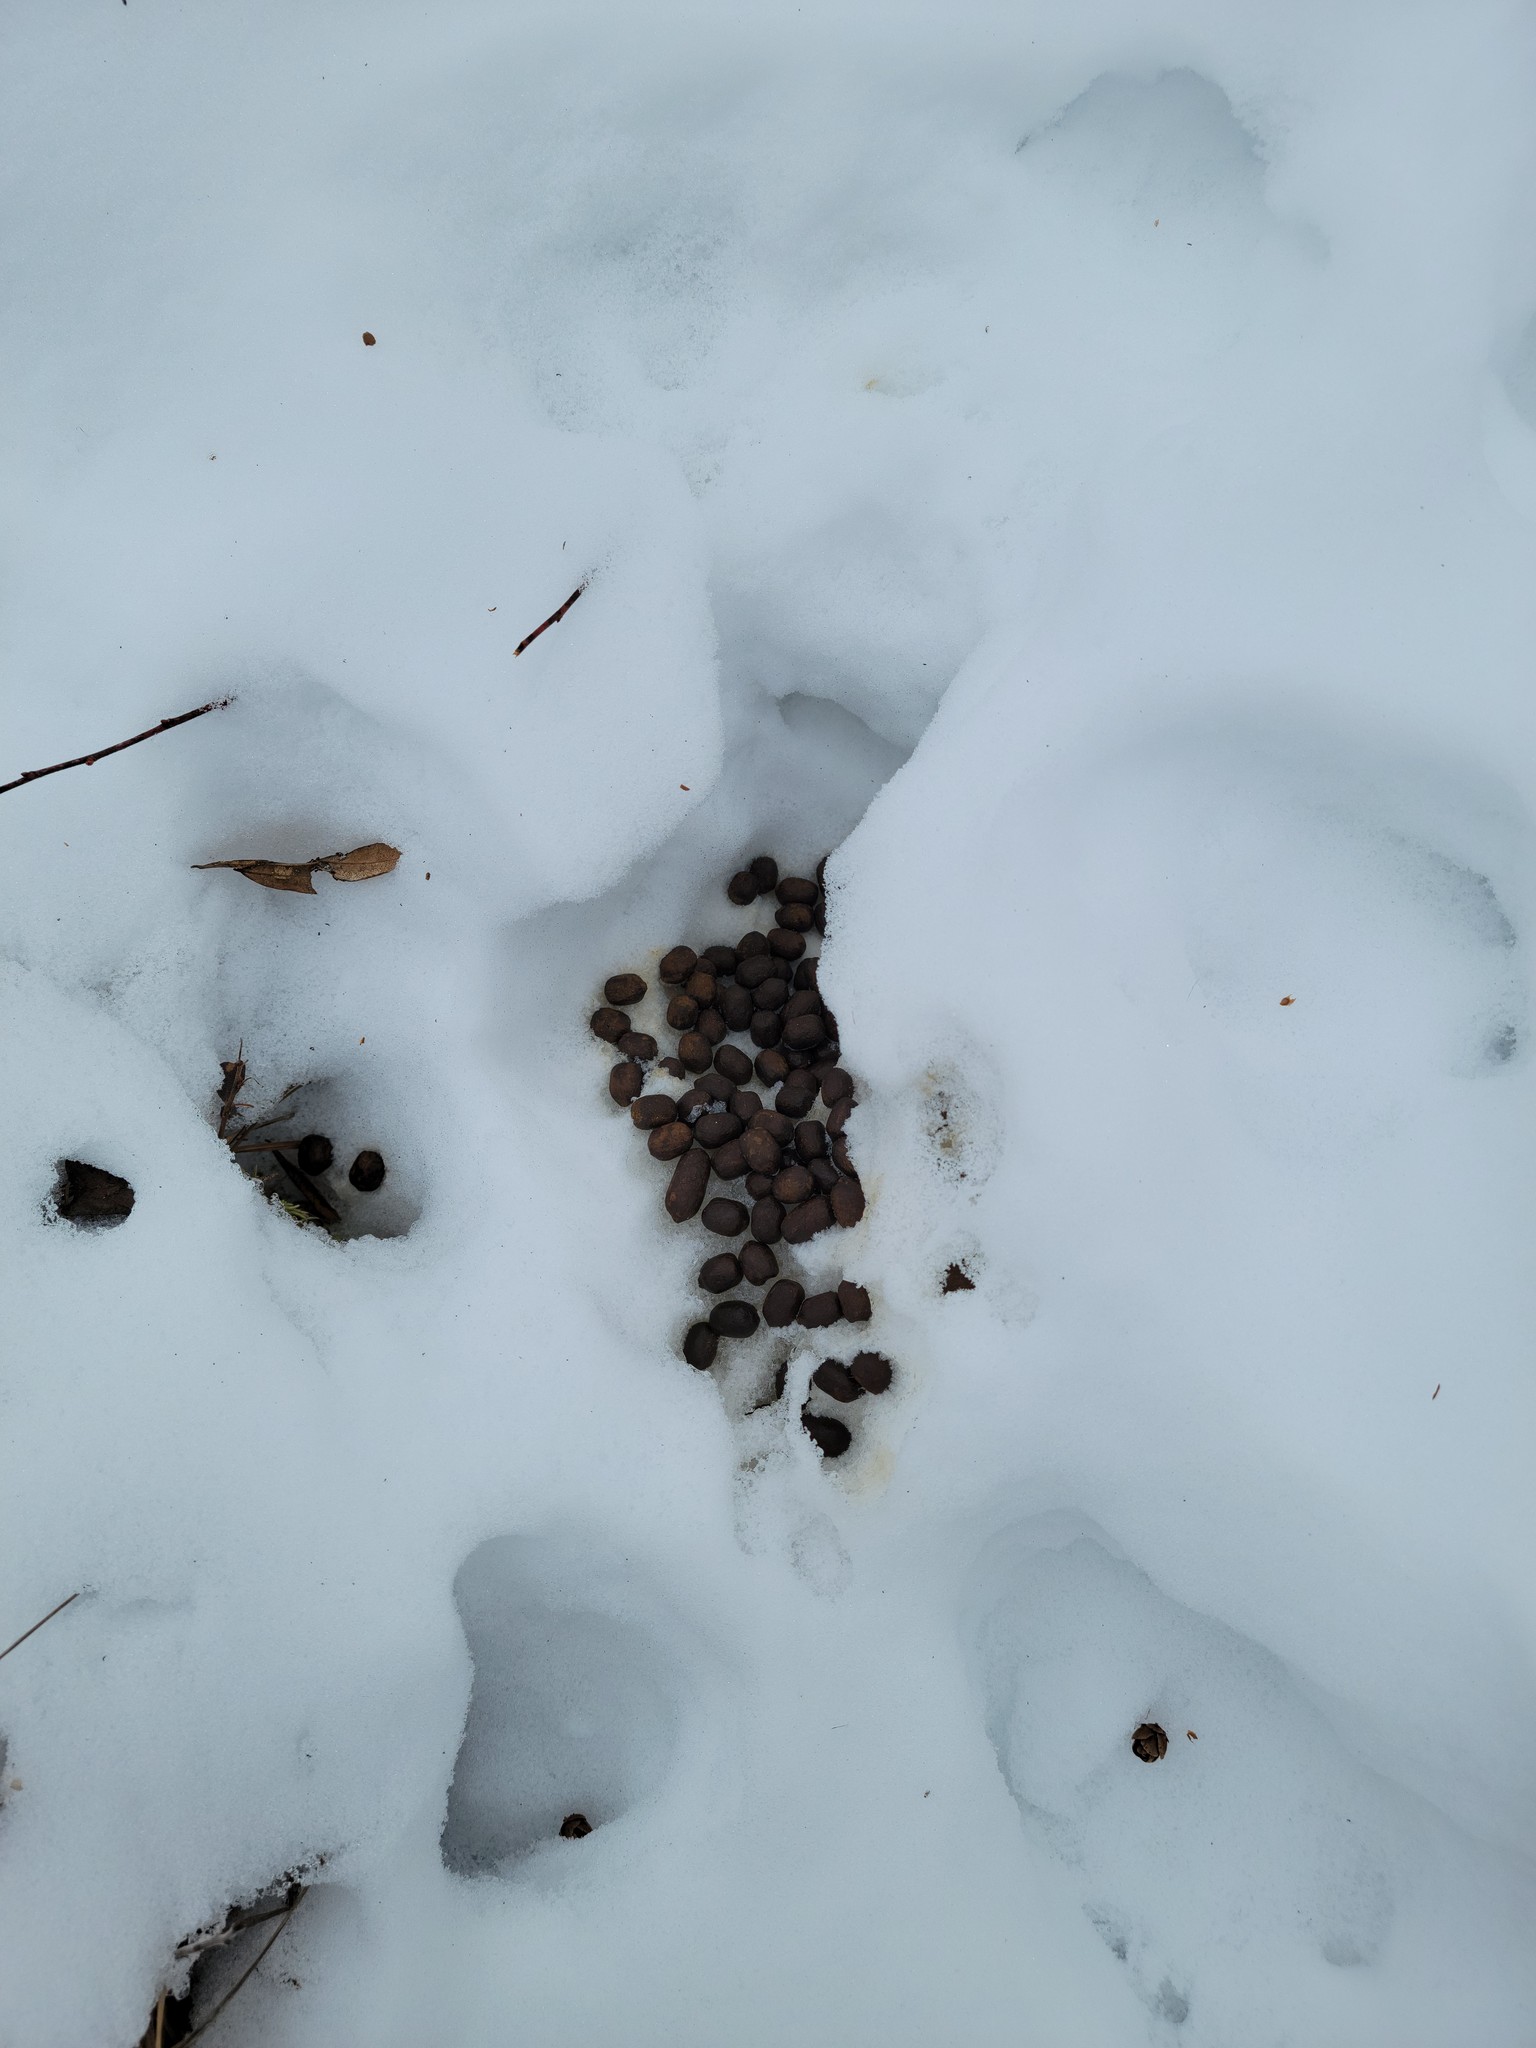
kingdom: Animalia
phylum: Chordata
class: Mammalia
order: Artiodactyla
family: Cervidae
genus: Odocoileus
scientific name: Odocoileus virginianus
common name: White-tailed deer
